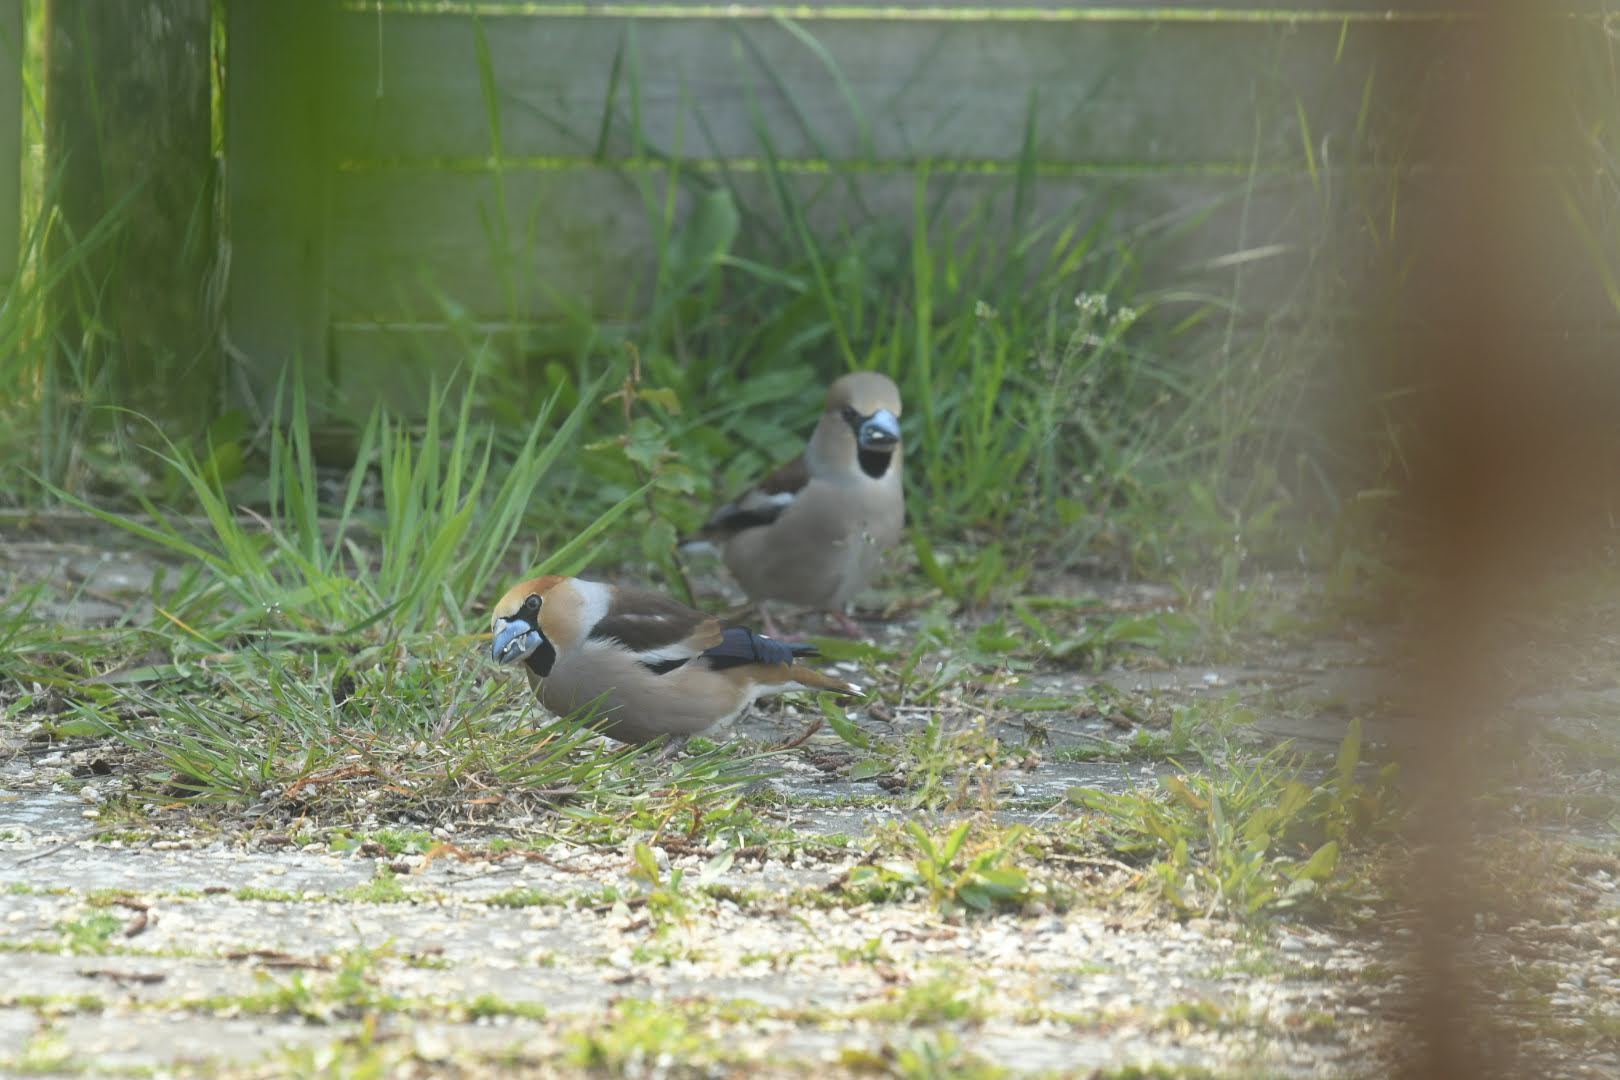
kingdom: Animalia
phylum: Chordata
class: Aves
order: Passeriformes
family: Fringillidae
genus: Coccothraustes
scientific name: Coccothraustes coccothraustes
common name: Hawfinch
